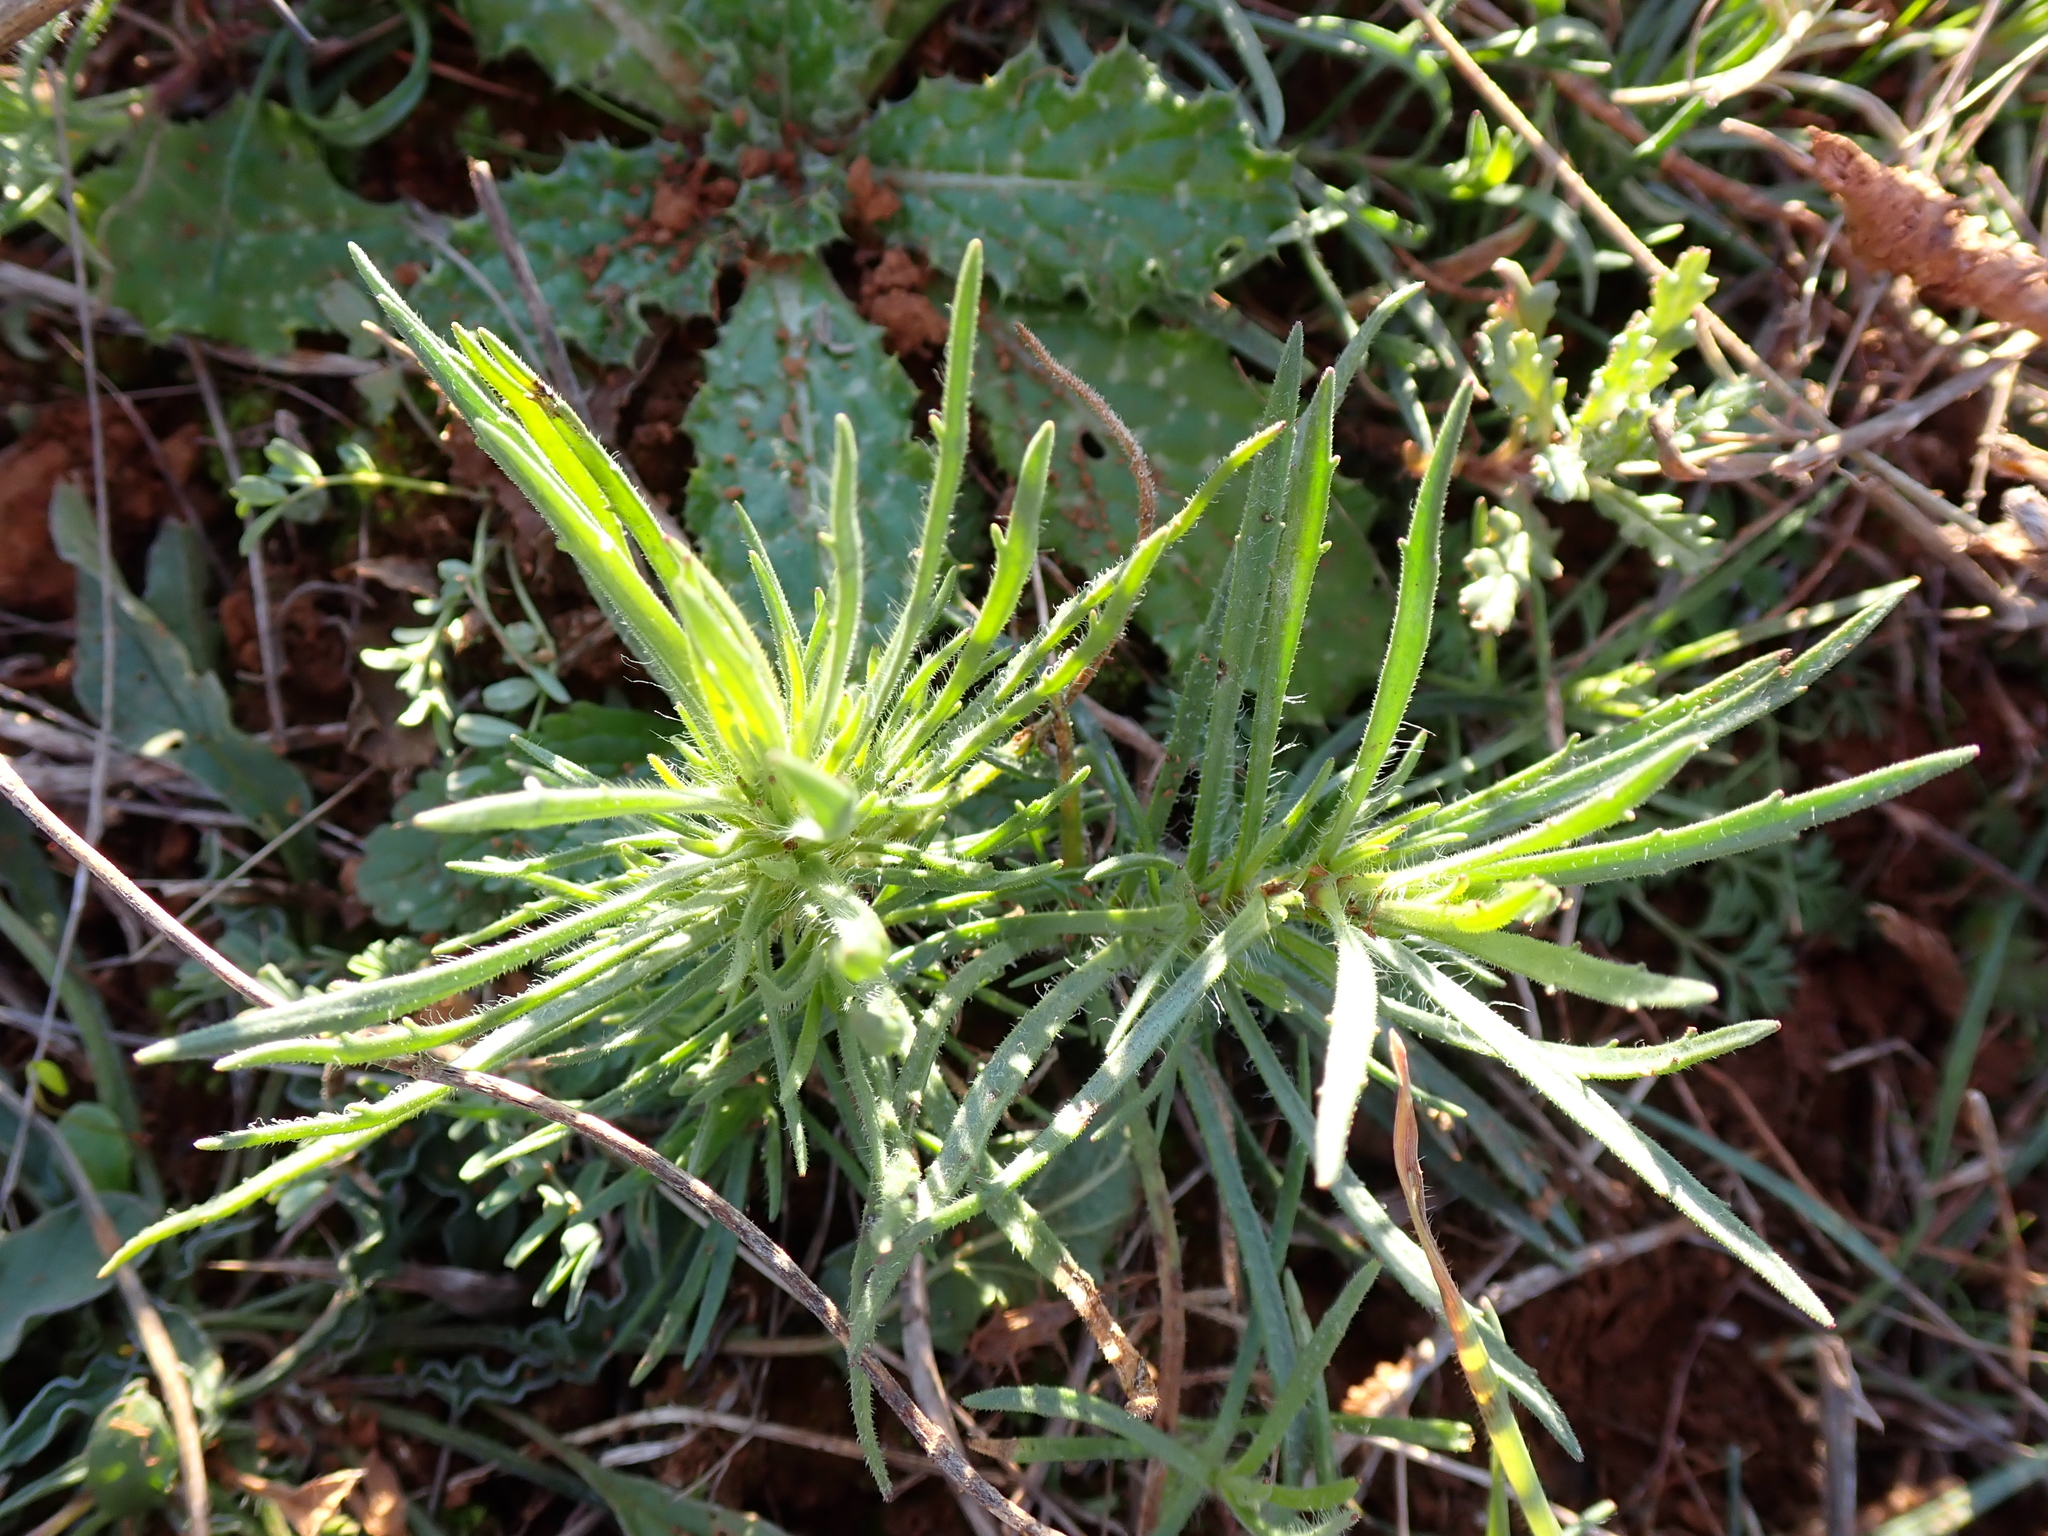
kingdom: Plantae
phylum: Tracheophyta
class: Magnoliopsida
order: Lamiales
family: Lamiaceae
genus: Ajuga
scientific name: Ajuga chamaepitys
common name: Ground-pine
